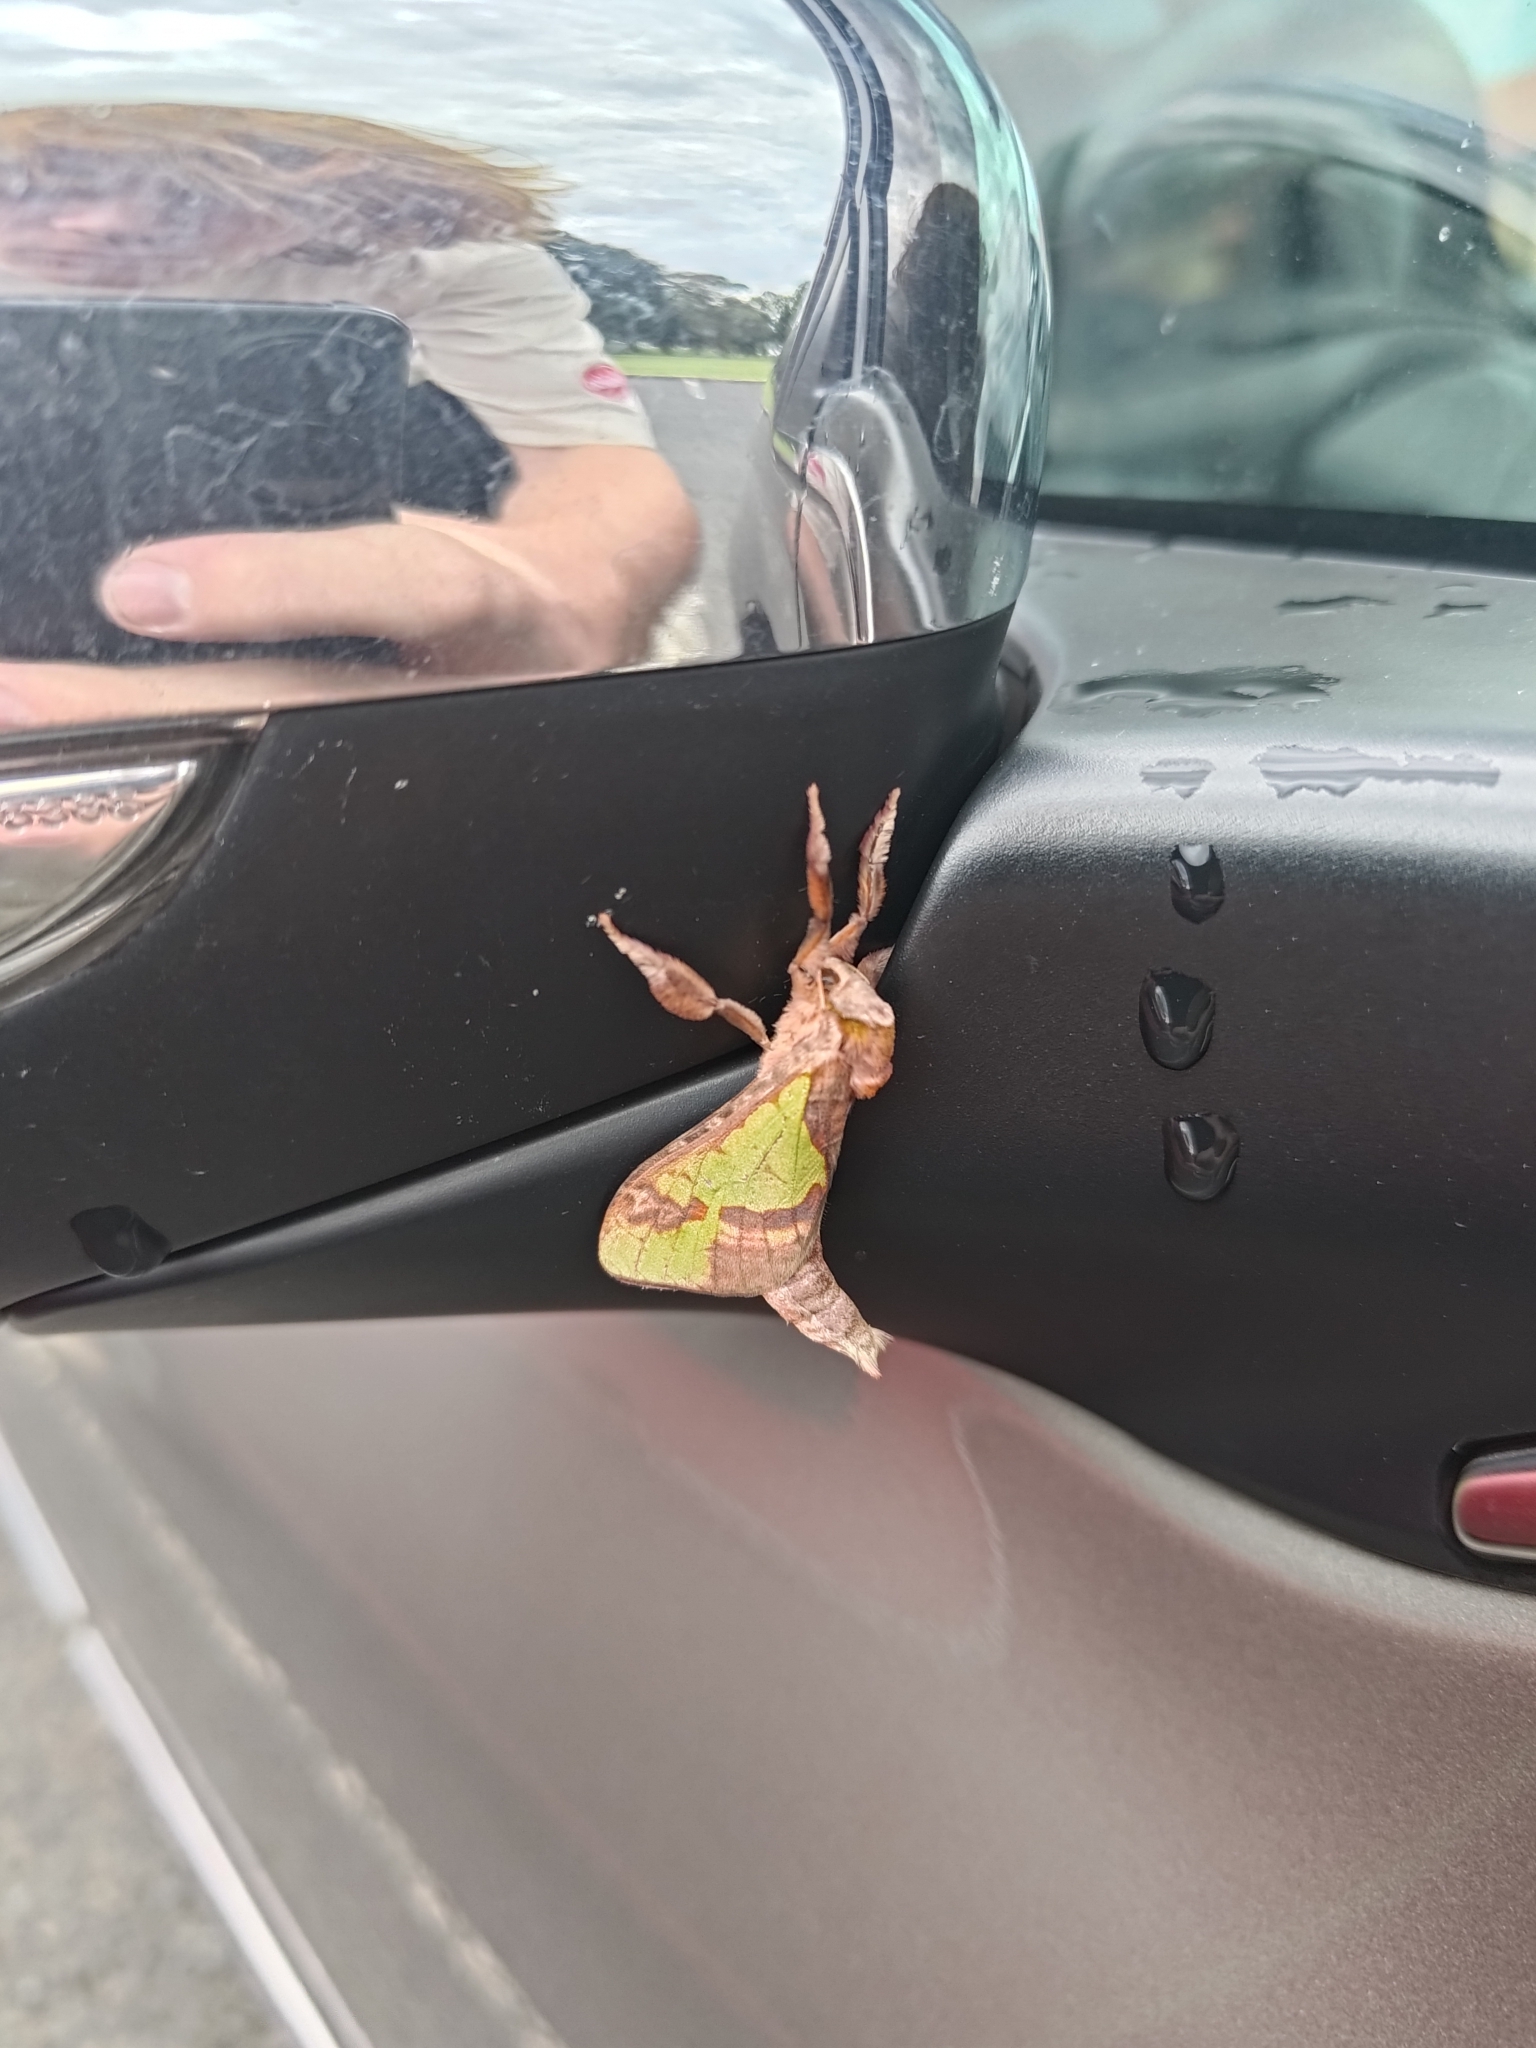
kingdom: Animalia
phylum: Arthropoda
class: Insecta
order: Lepidoptera
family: Hepialidae
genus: Aenetus
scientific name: Aenetus ligniveren
